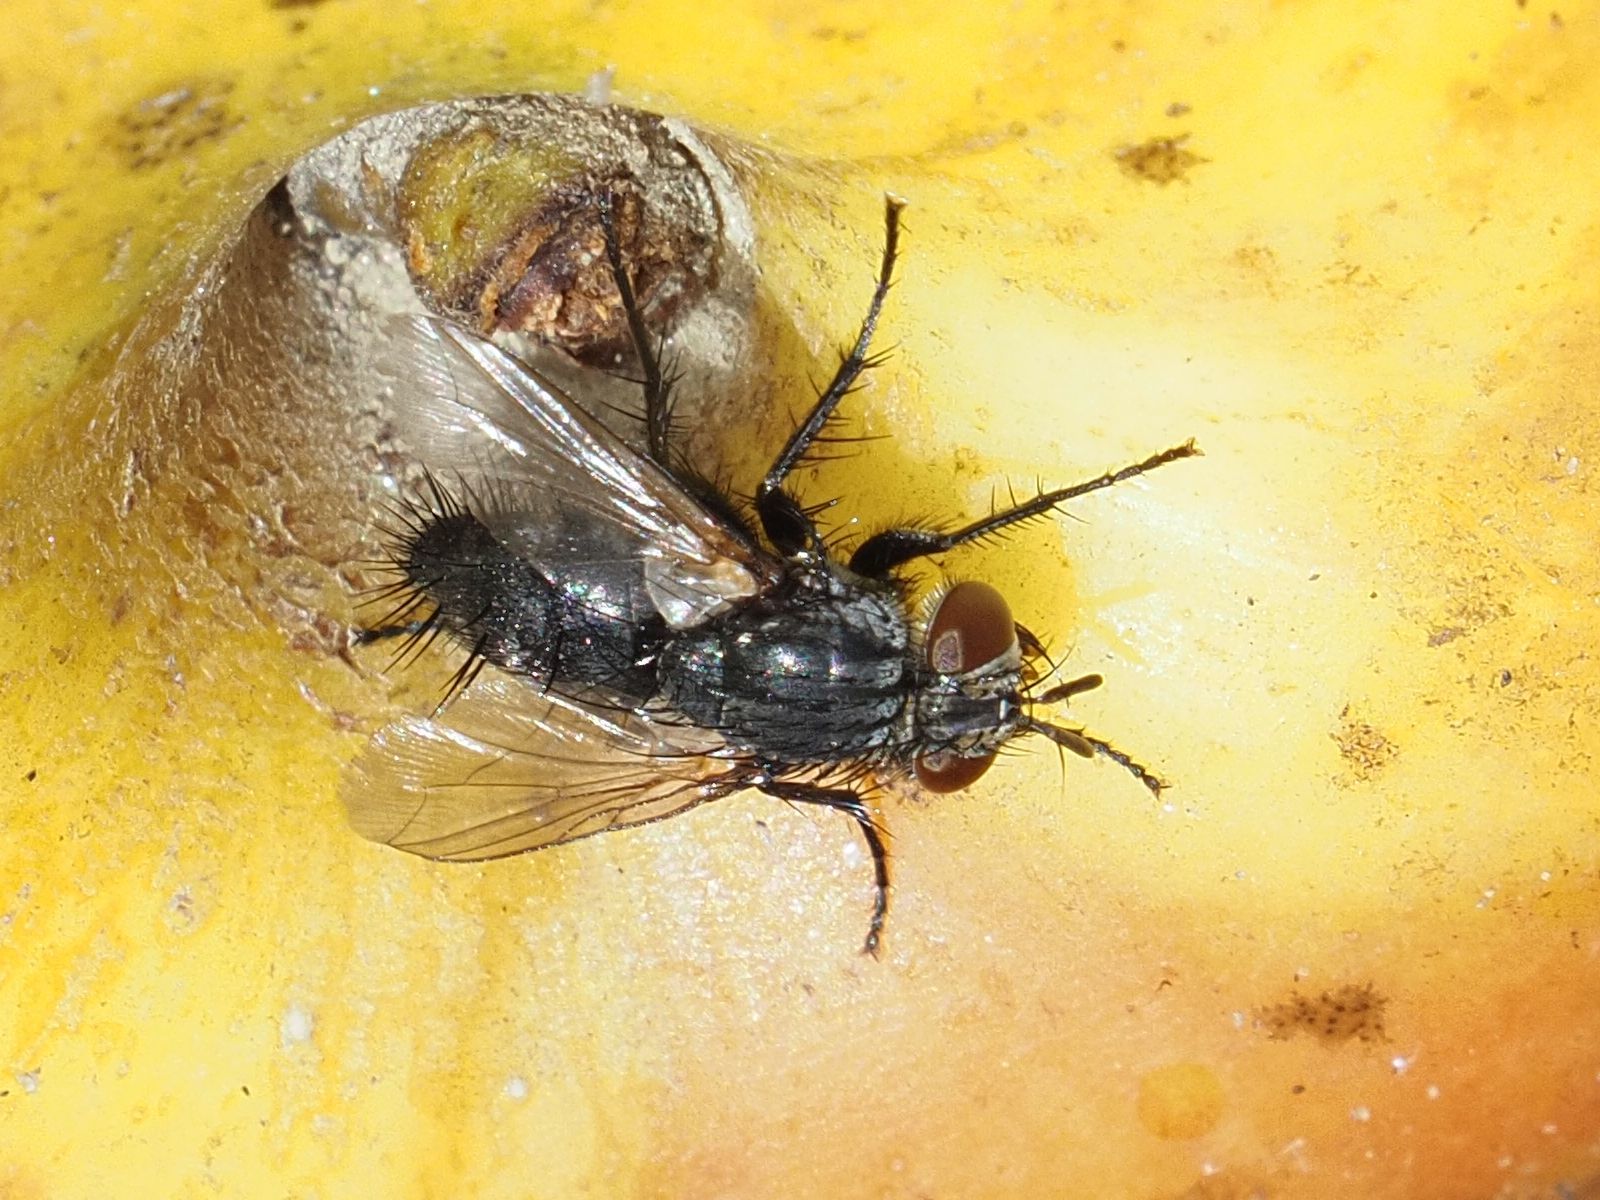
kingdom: Animalia
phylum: Arthropoda
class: Insecta
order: Diptera
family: Tachinidae
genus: Voria
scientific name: Voria ruralis
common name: Parasitic fly
